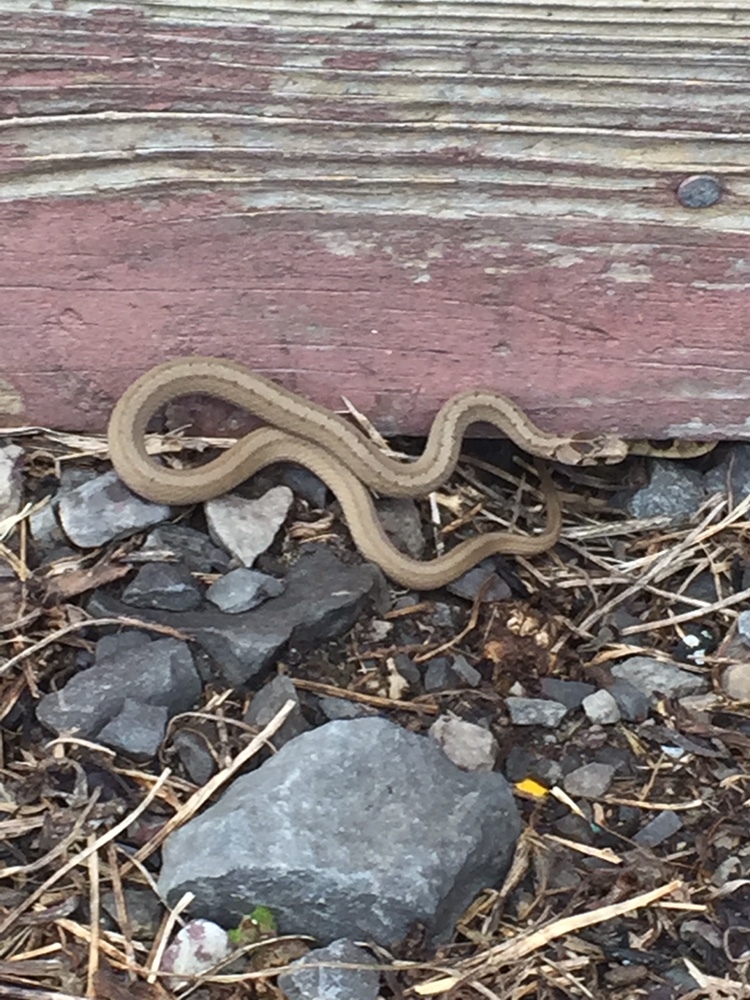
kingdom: Animalia
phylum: Chordata
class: Squamata
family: Colubridae
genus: Storeria
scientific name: Storeria dekayi
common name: (dekay’s) brown snake
